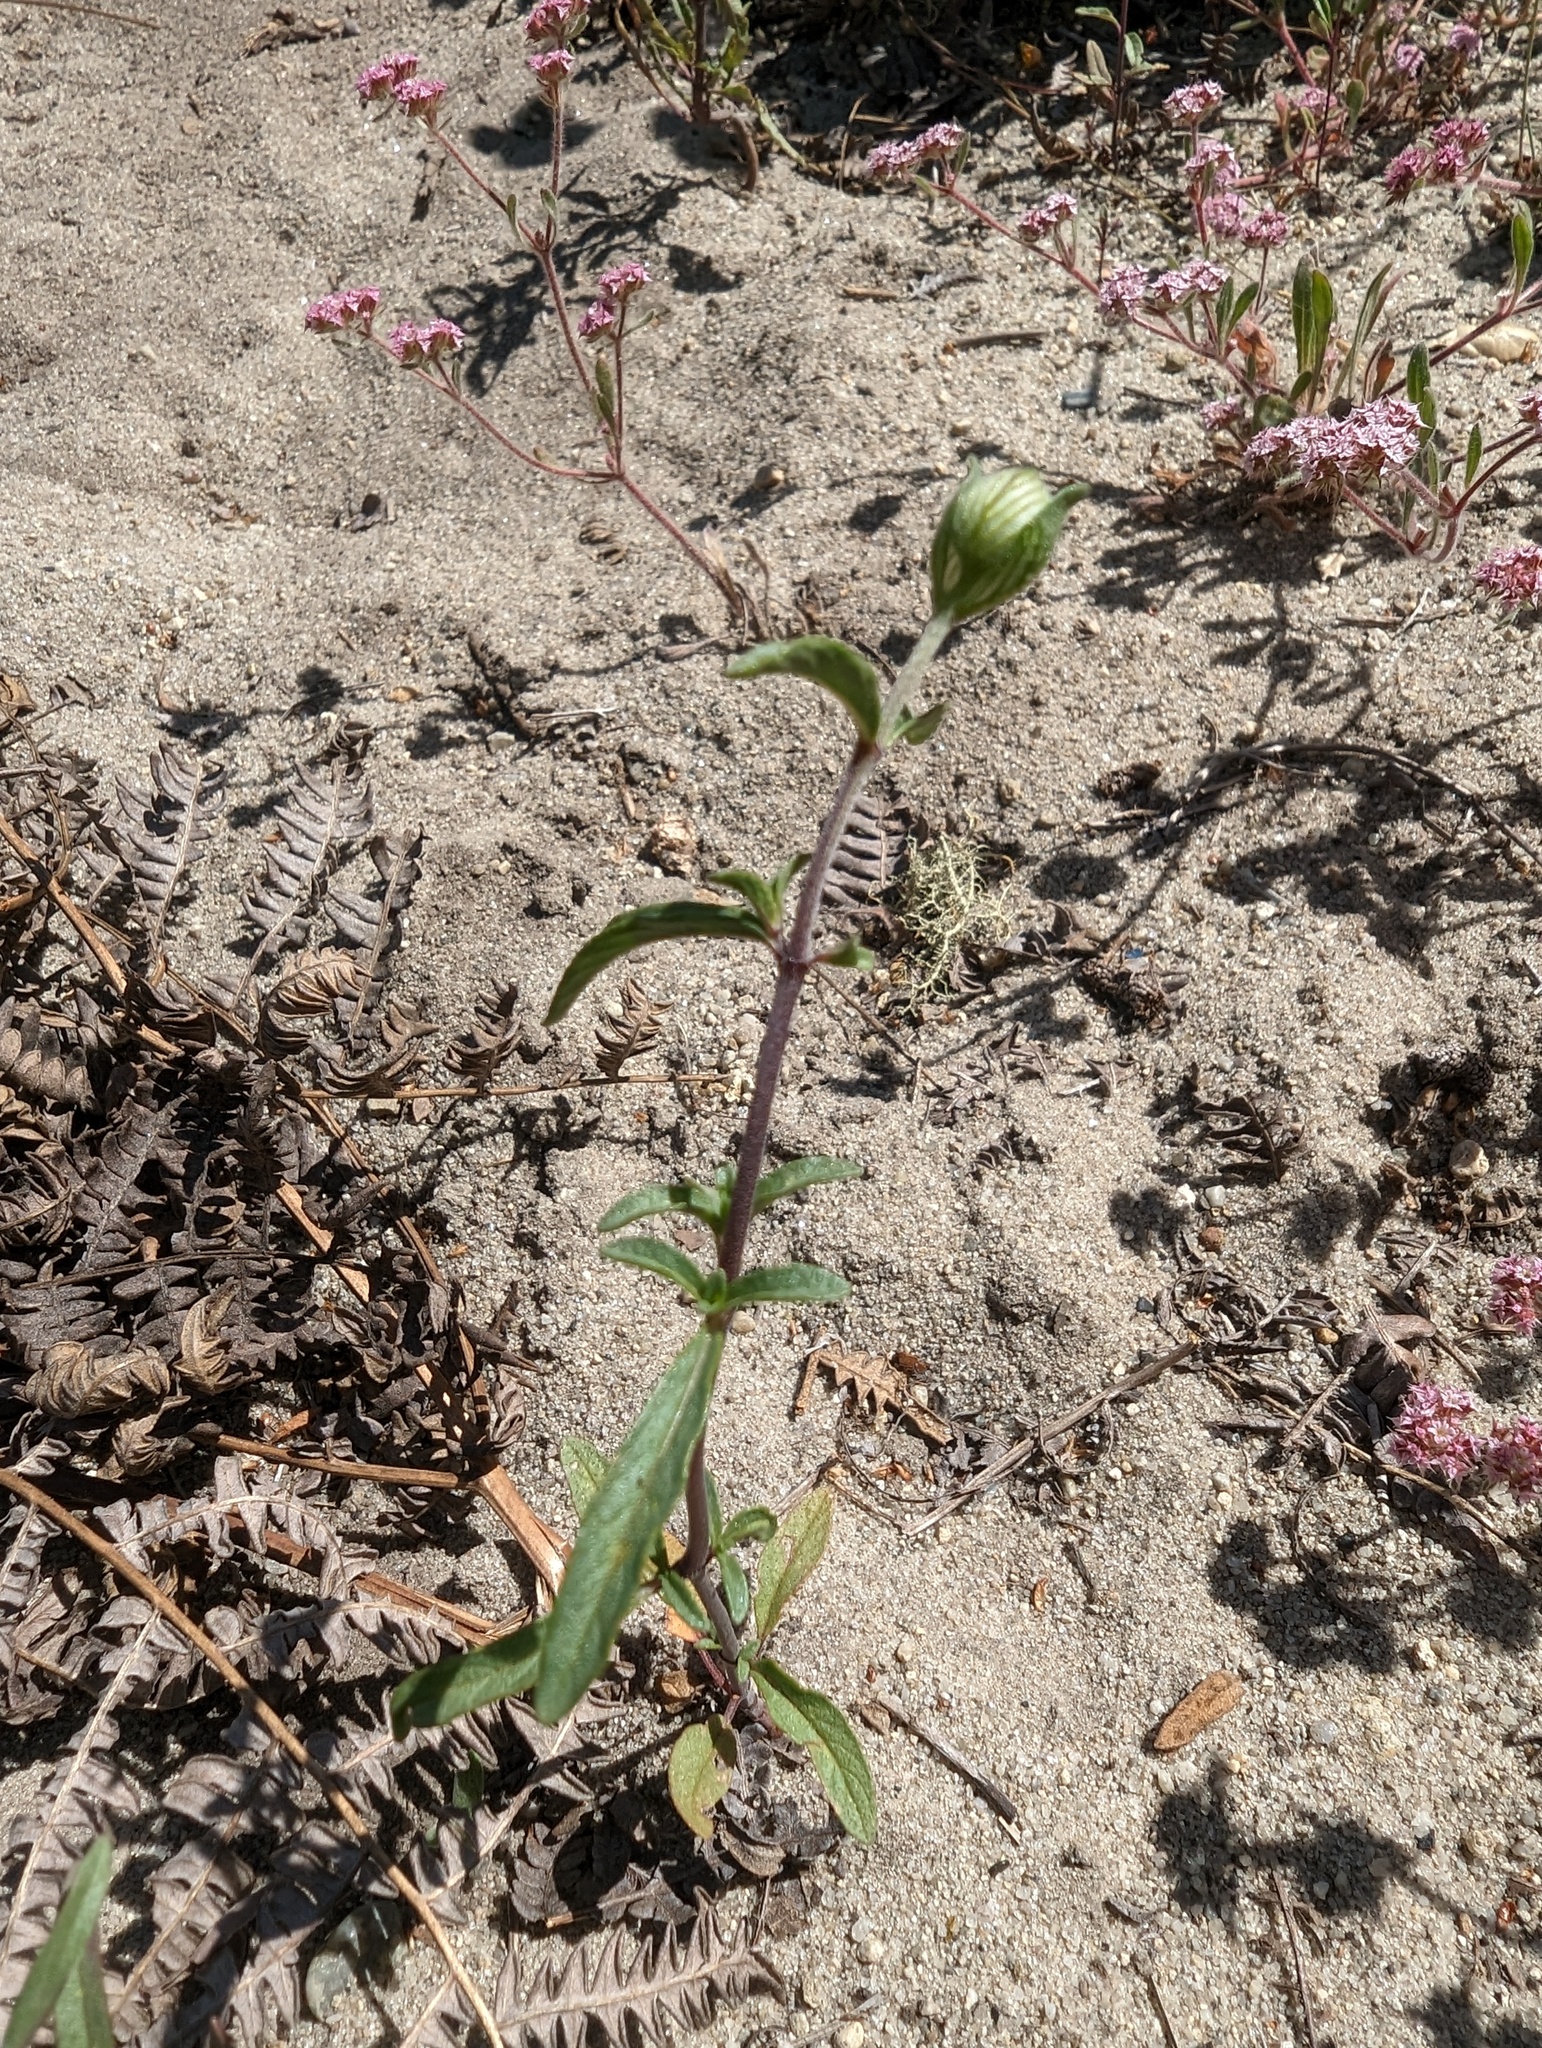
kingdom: Plantae
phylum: Tracheophyta
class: Magnoliopsida
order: Lamiales
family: Lamiaceae
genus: Monardella
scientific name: Monardella sinuata
